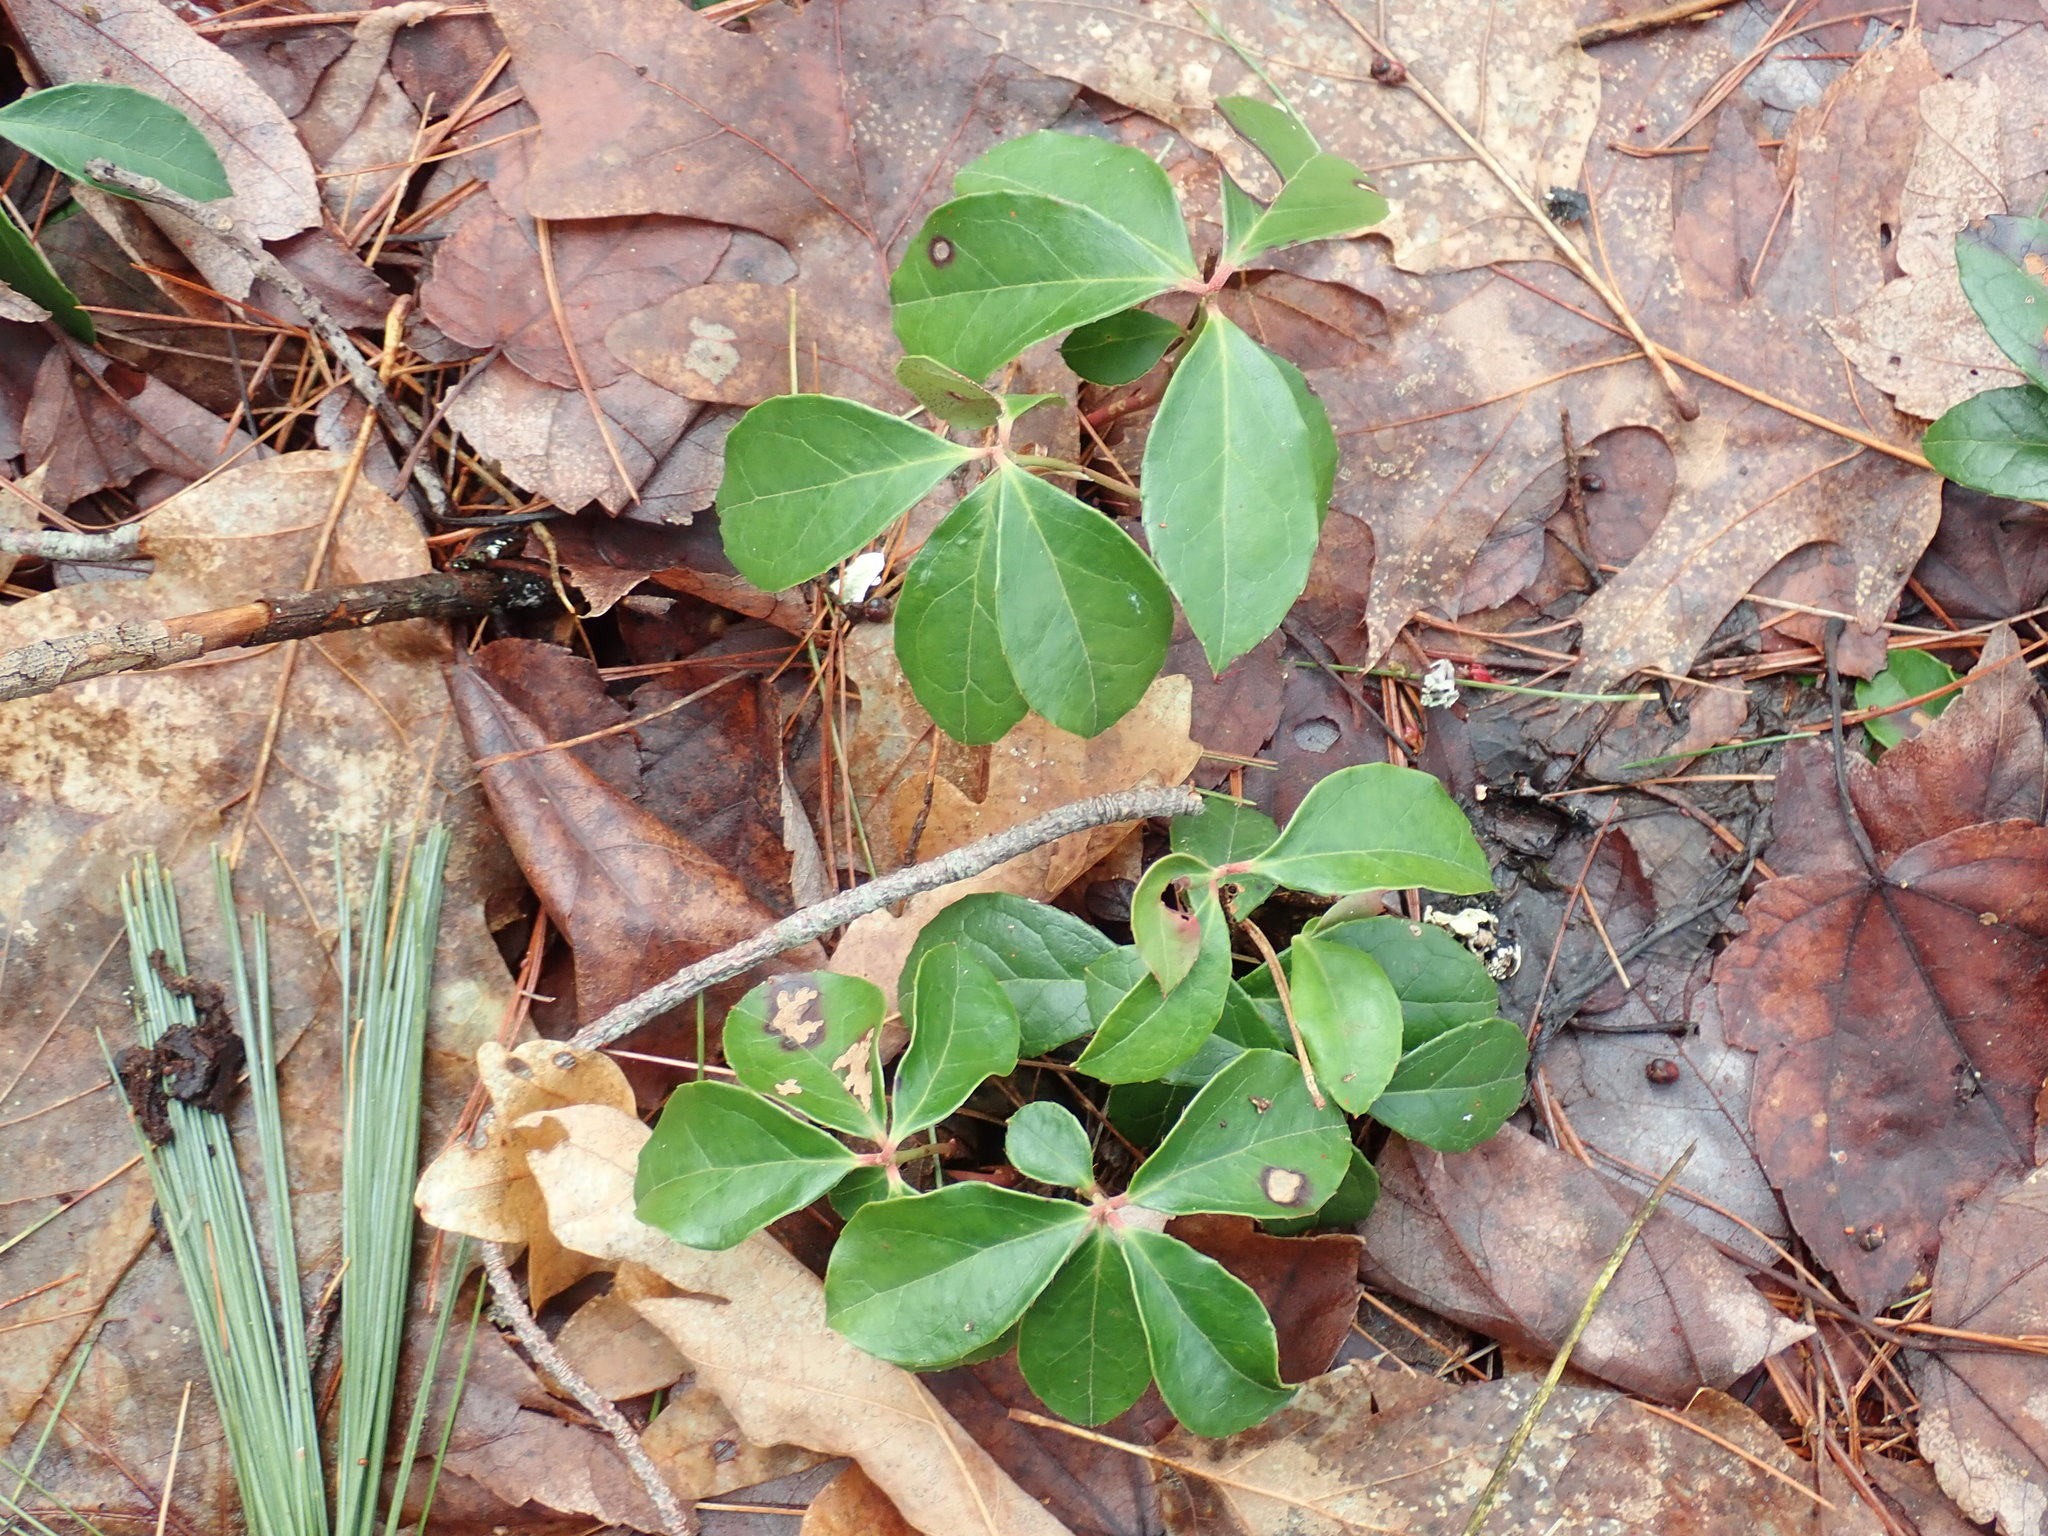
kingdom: Plantae
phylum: Tracheophyta
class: Magnoliopsida
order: Ericales
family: Ericaceae
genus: Gaultheria
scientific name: Gaultheria procumbens
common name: Checkerberry
